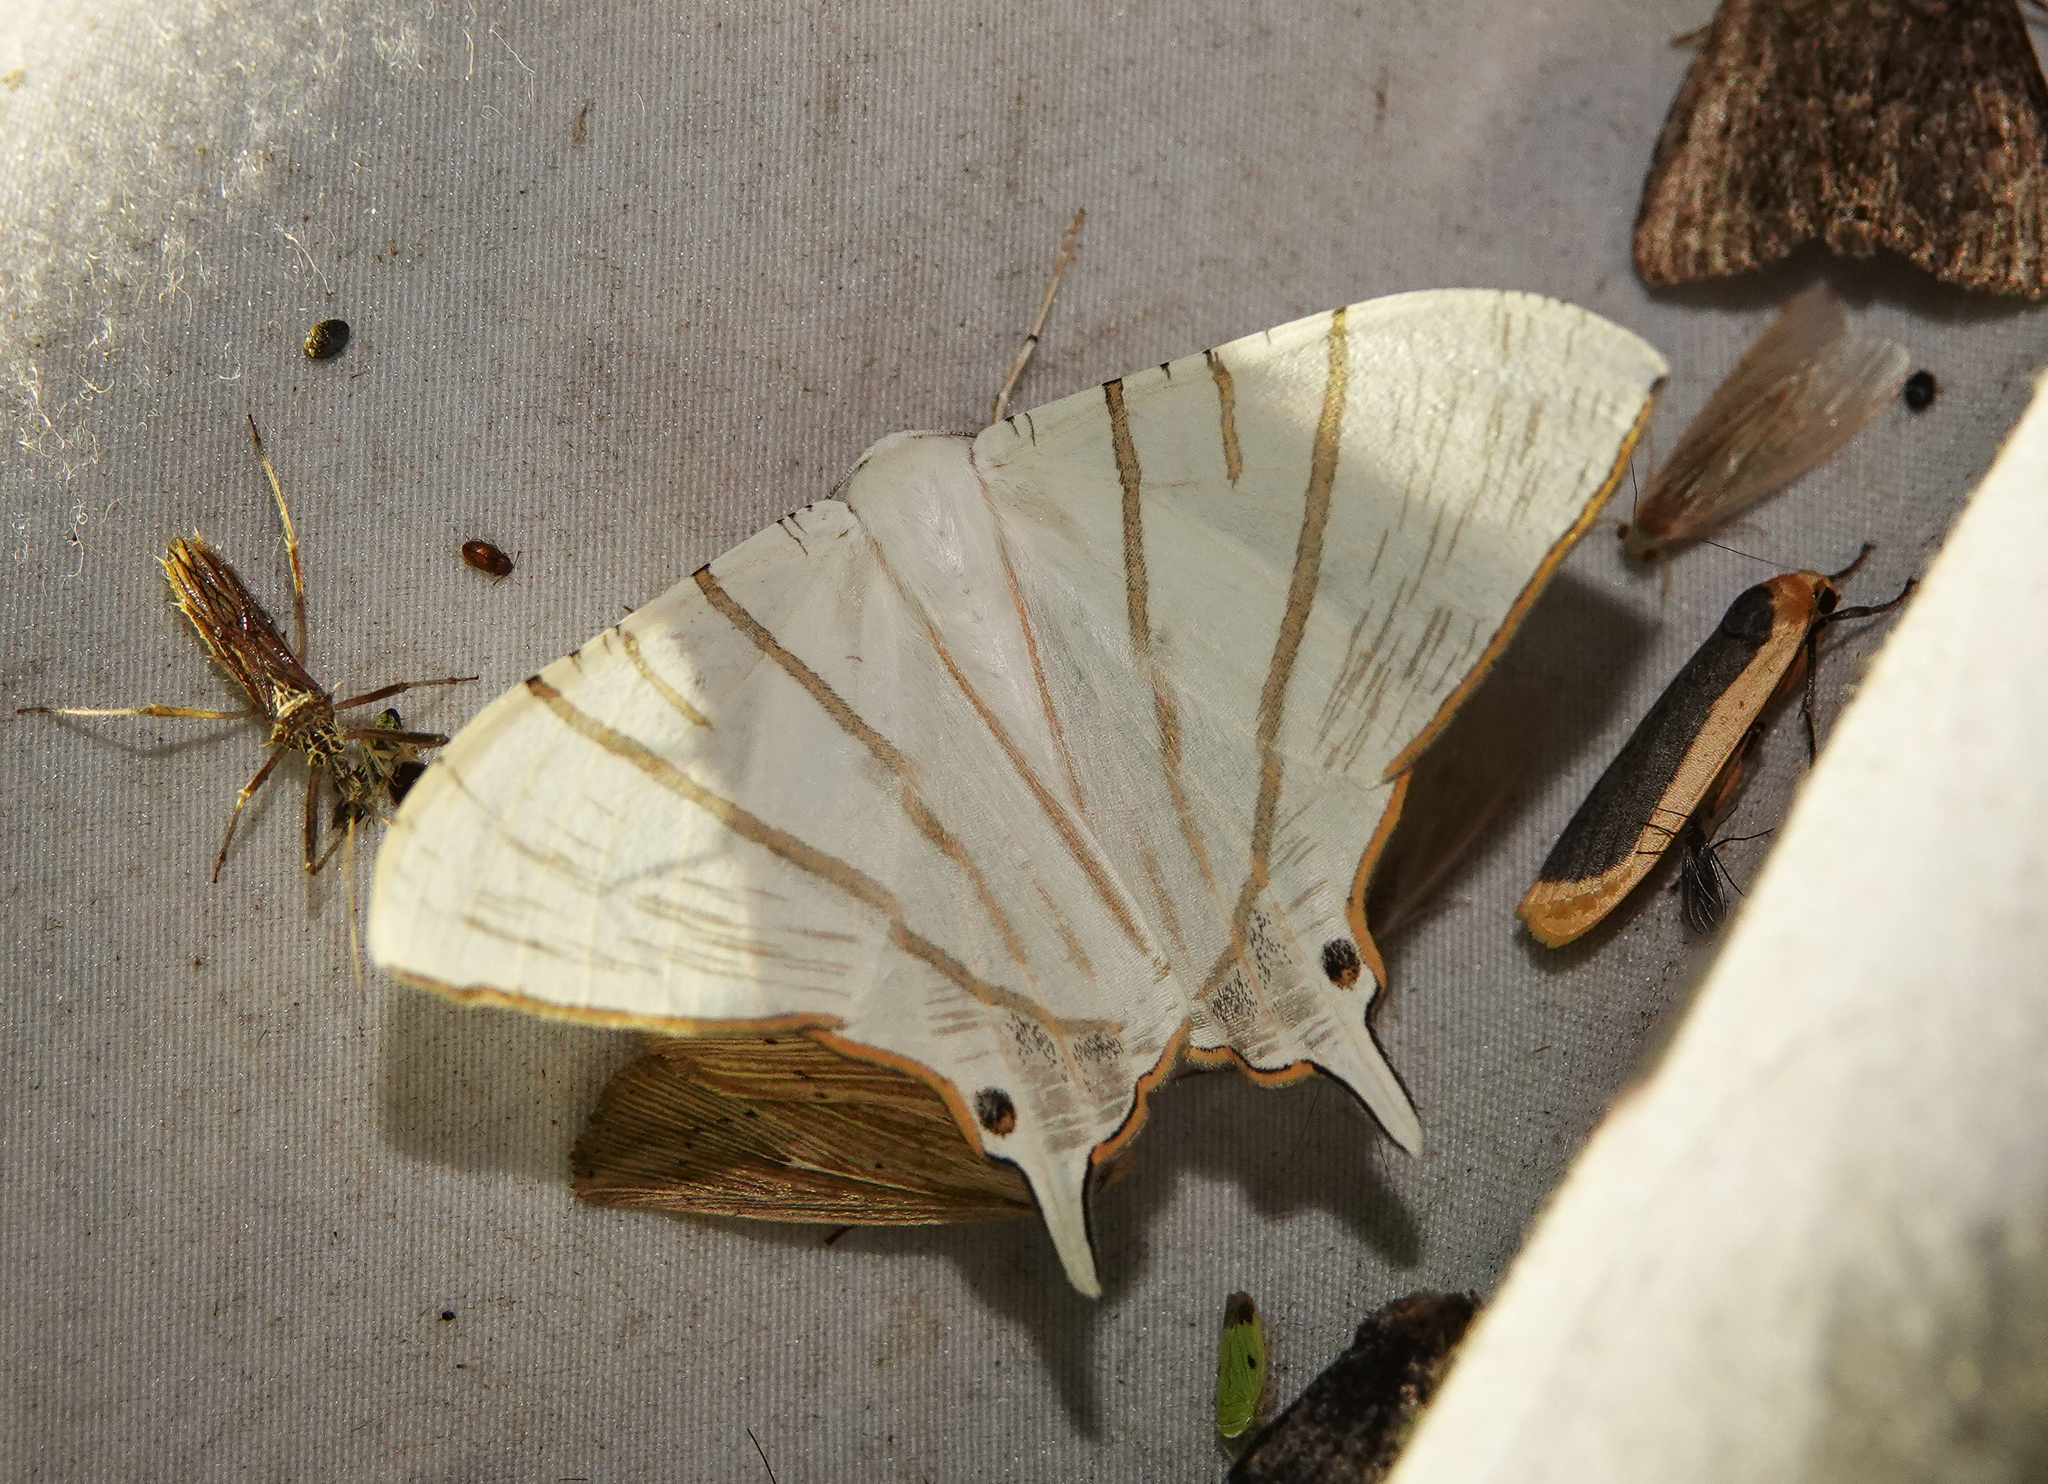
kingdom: Animalia
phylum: Arthropoda
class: Insecta
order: Lepidoptera
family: Geometridae
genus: Ourapteryx
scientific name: Ourapteryx fulvinervis
